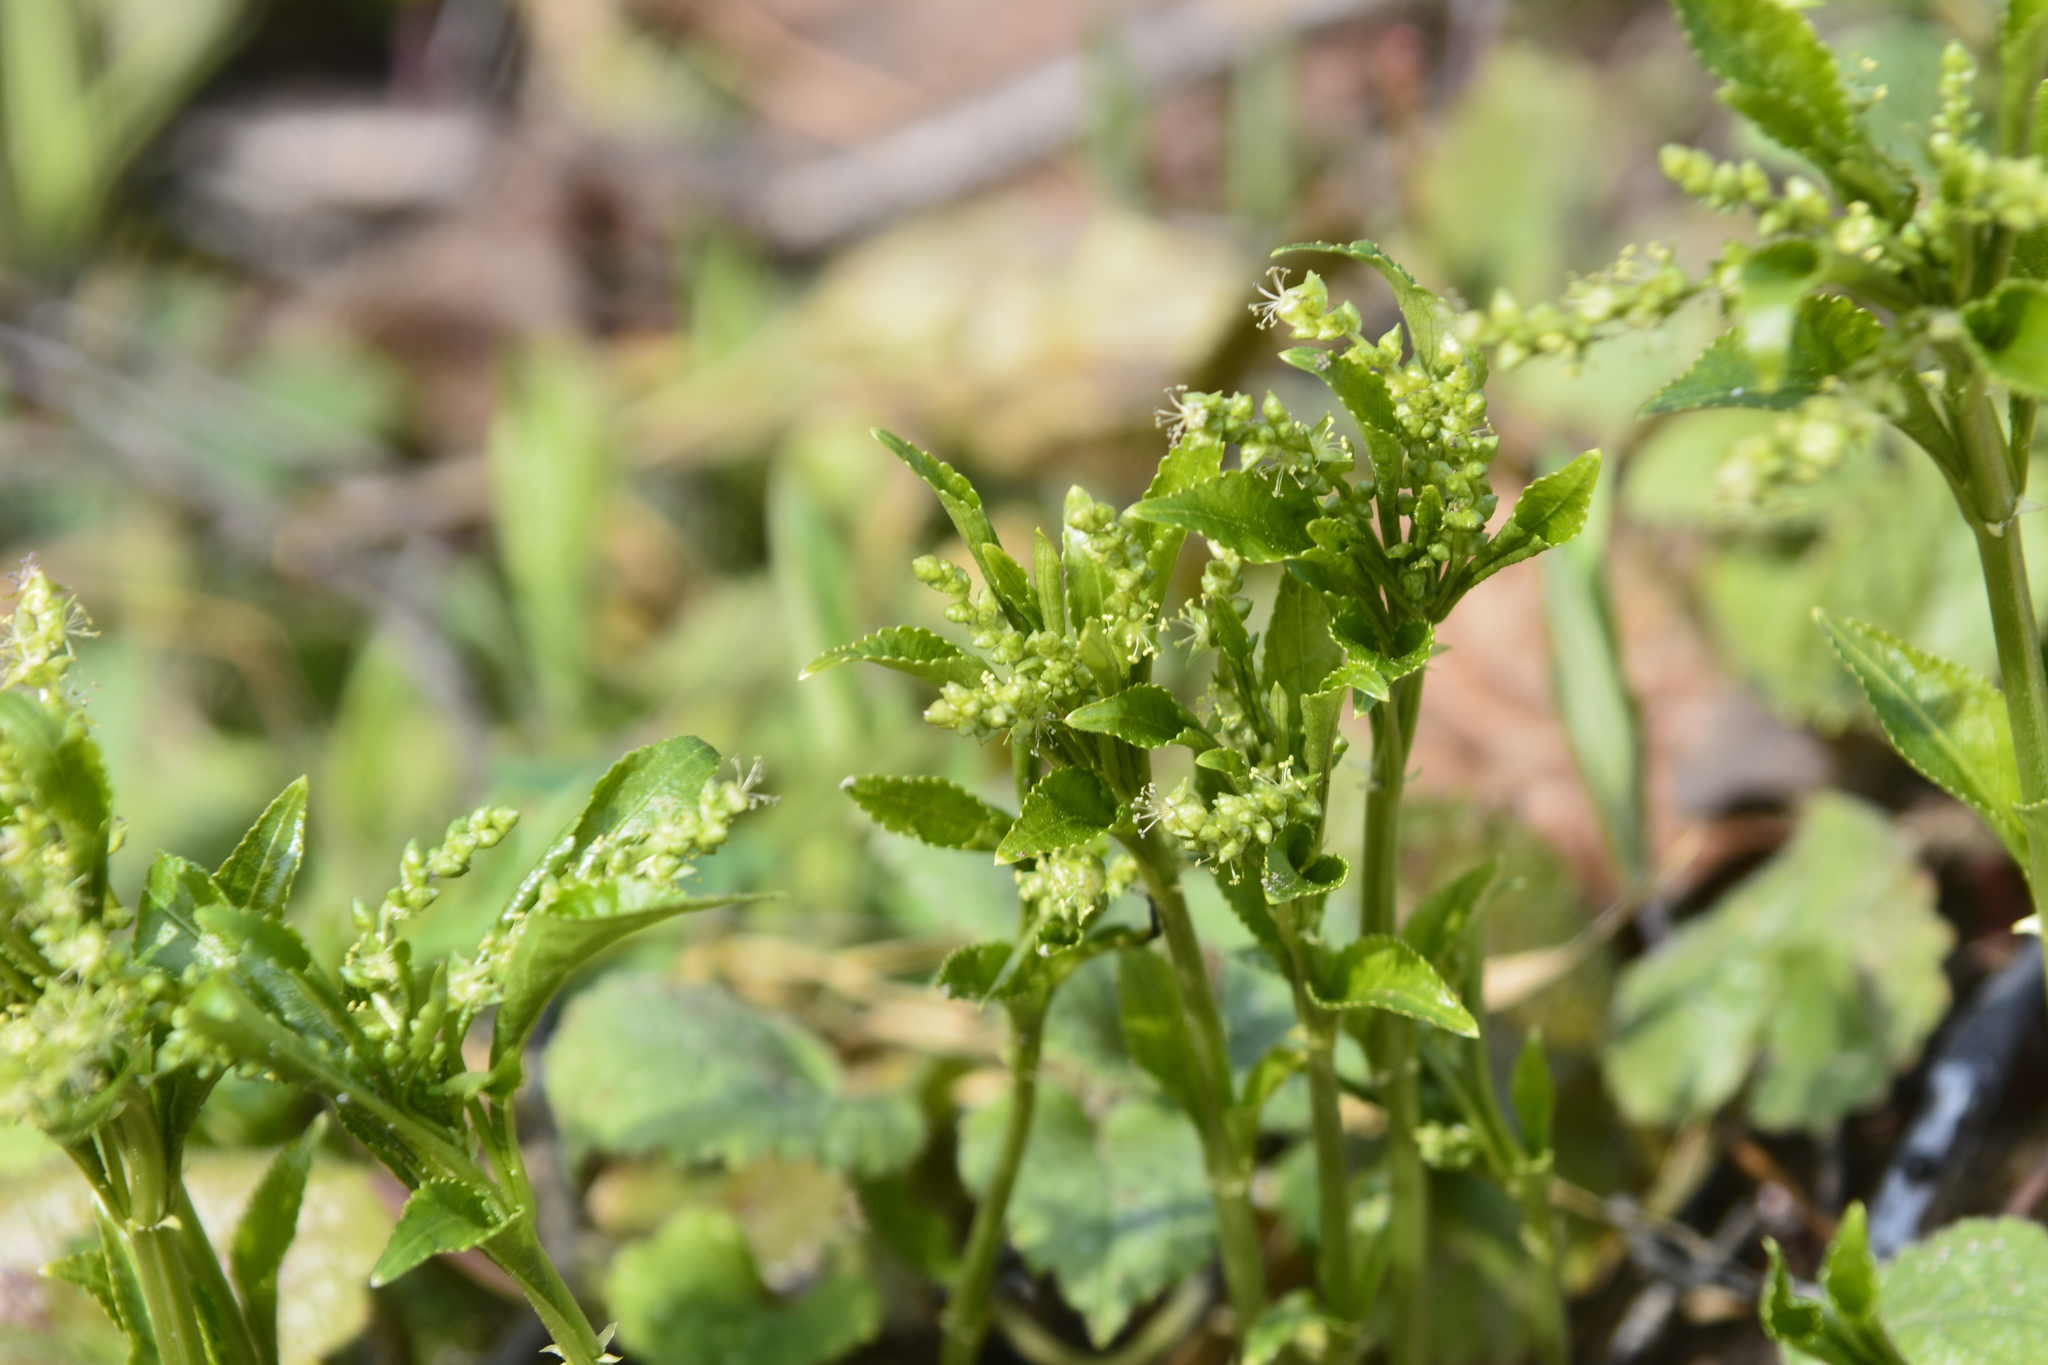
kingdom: Plantae
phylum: Tracheophyta
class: Magnoliopsida
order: Malpighiales
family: Euphorbiaceae
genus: Mercurialis
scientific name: Mercurialis perennis
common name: Dog mercury
